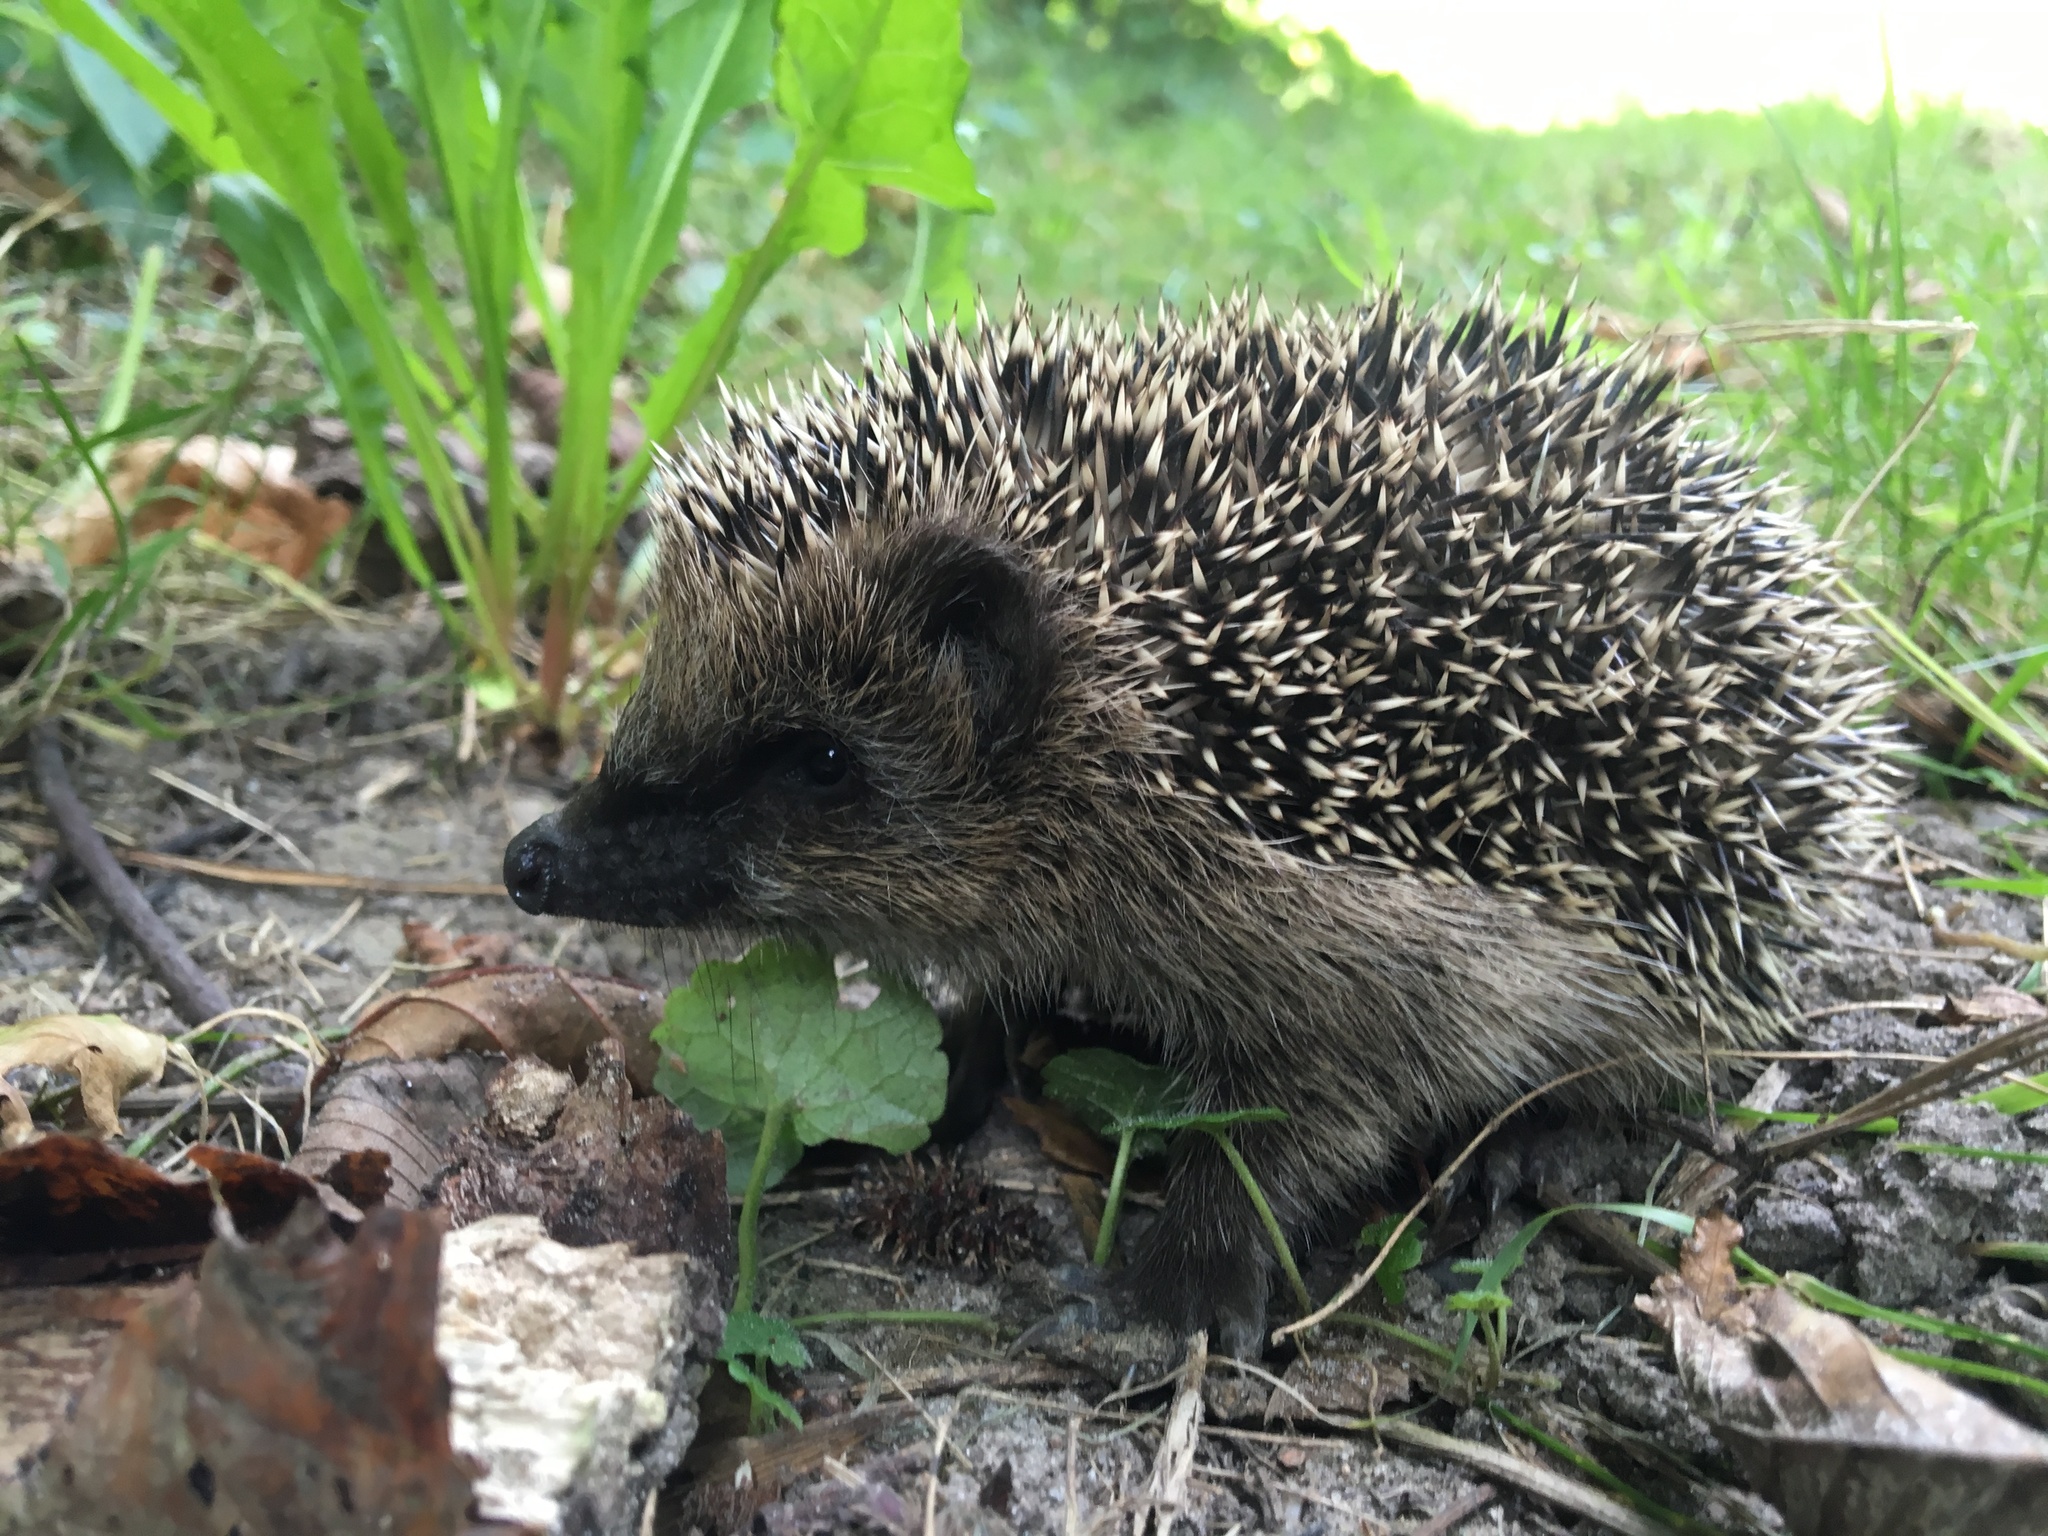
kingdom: Animalia
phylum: Chordata
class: Mammalia
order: Erinaceomorpha
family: Erinaceidae
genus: Erinaceus
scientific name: Erinaceus europaeus
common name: West european hedgehog
